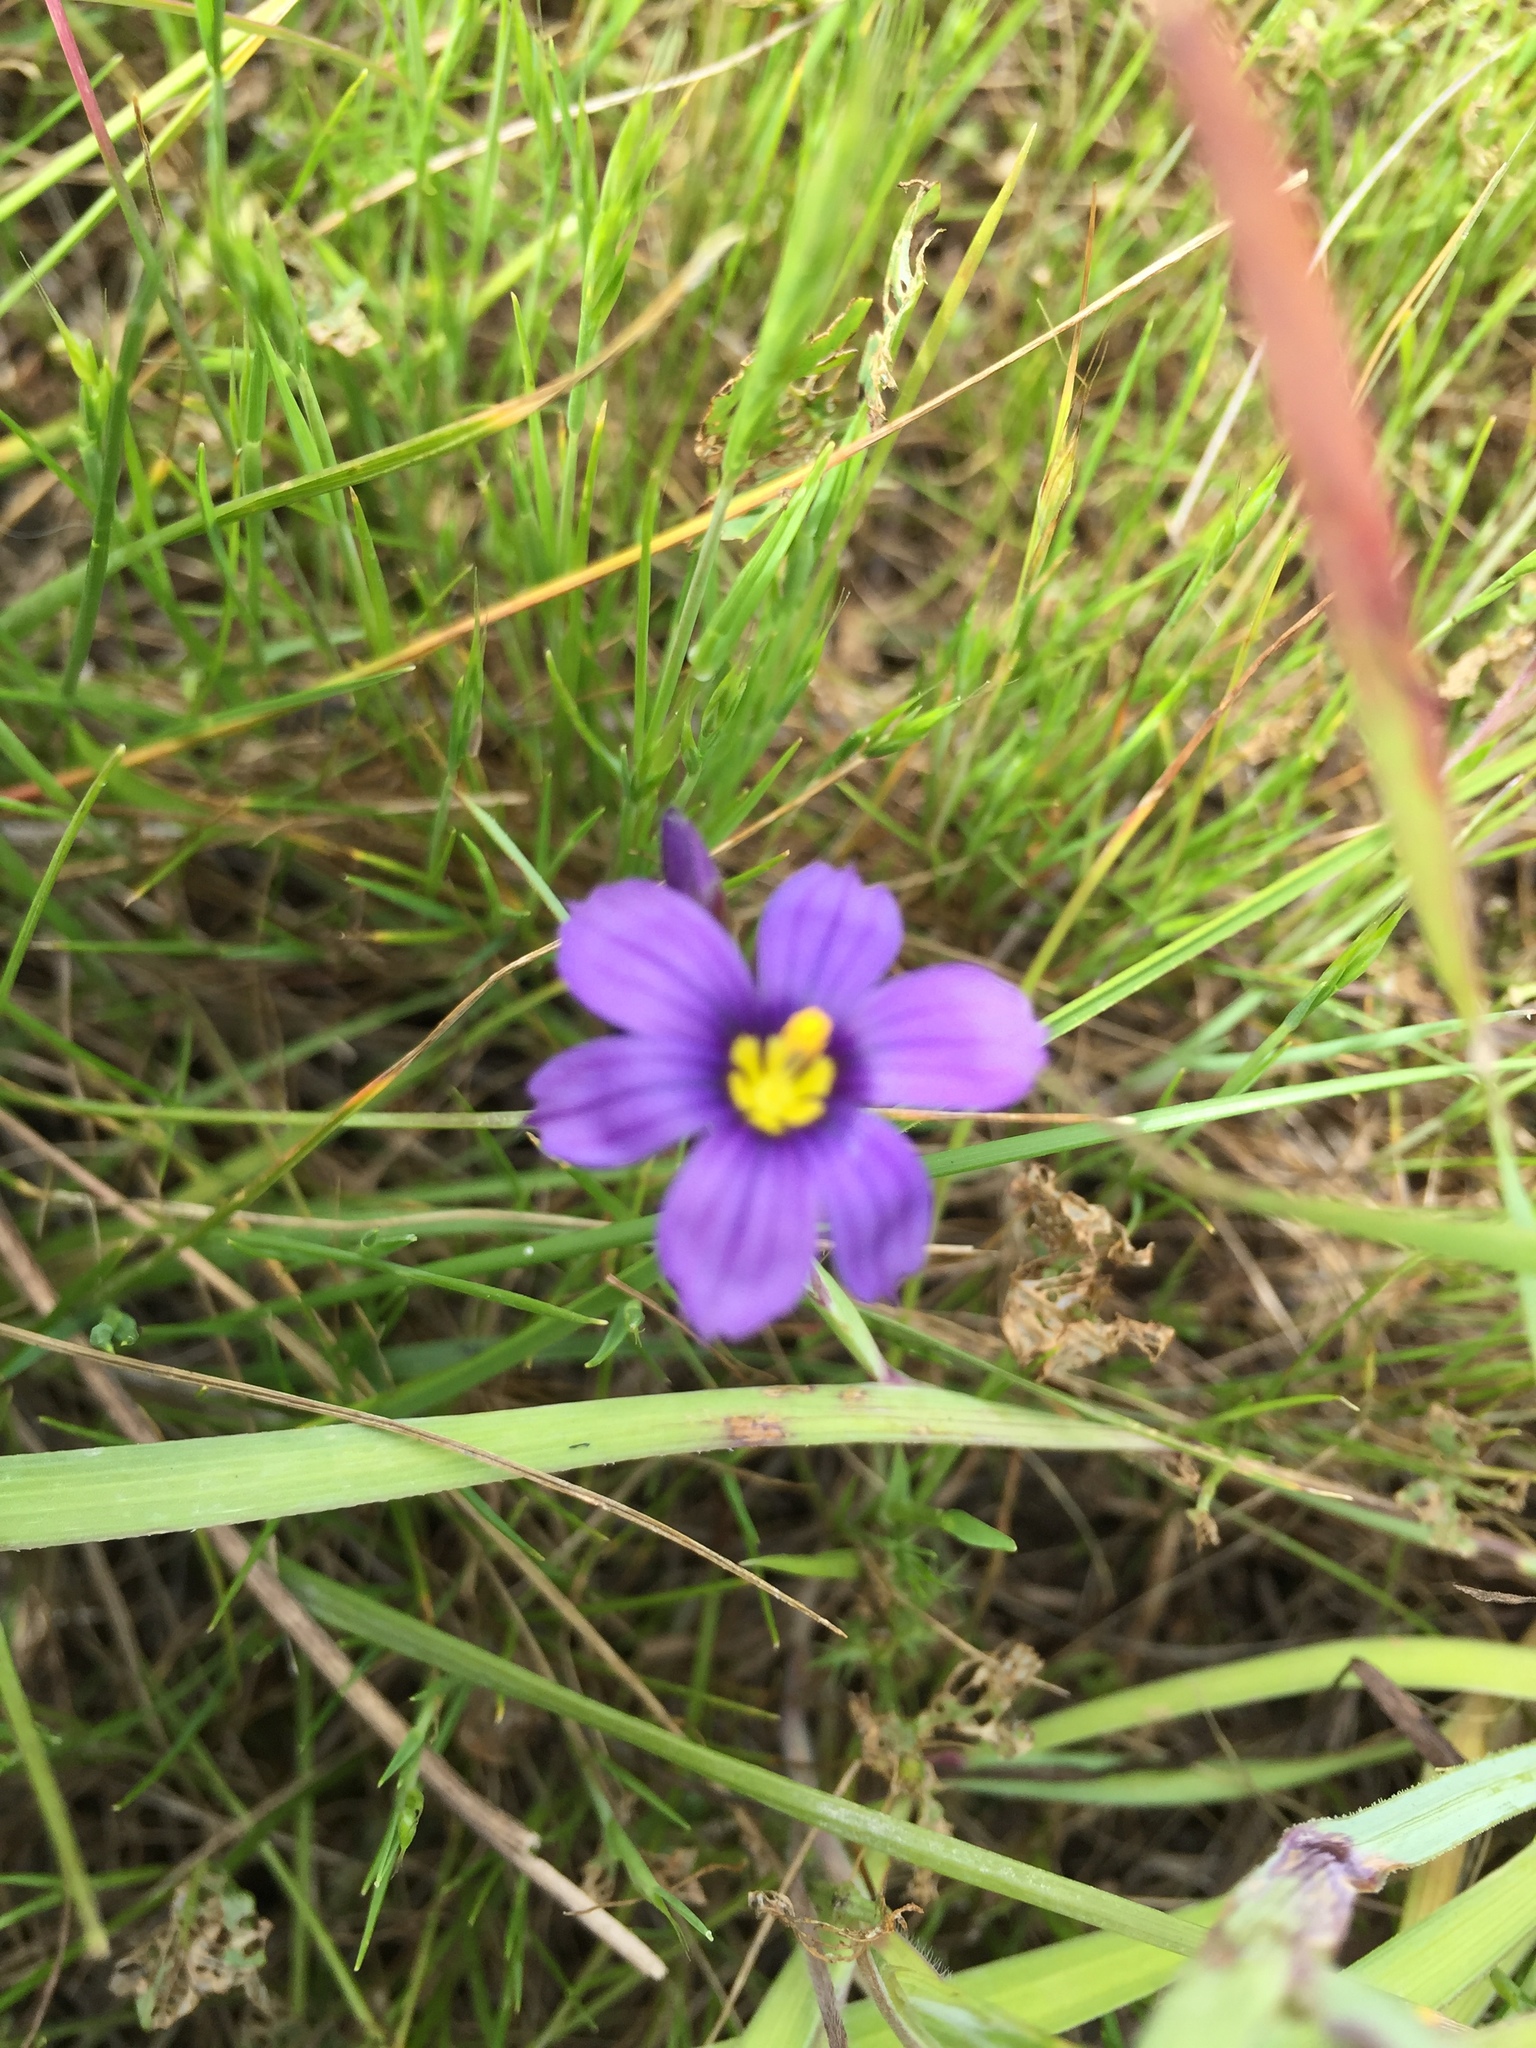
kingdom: Plantae
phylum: Tracheophyta
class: Liliopsida
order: Asparagales
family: Iridaceae
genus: Sisyrinchium
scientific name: Sisyrinchium bellum
